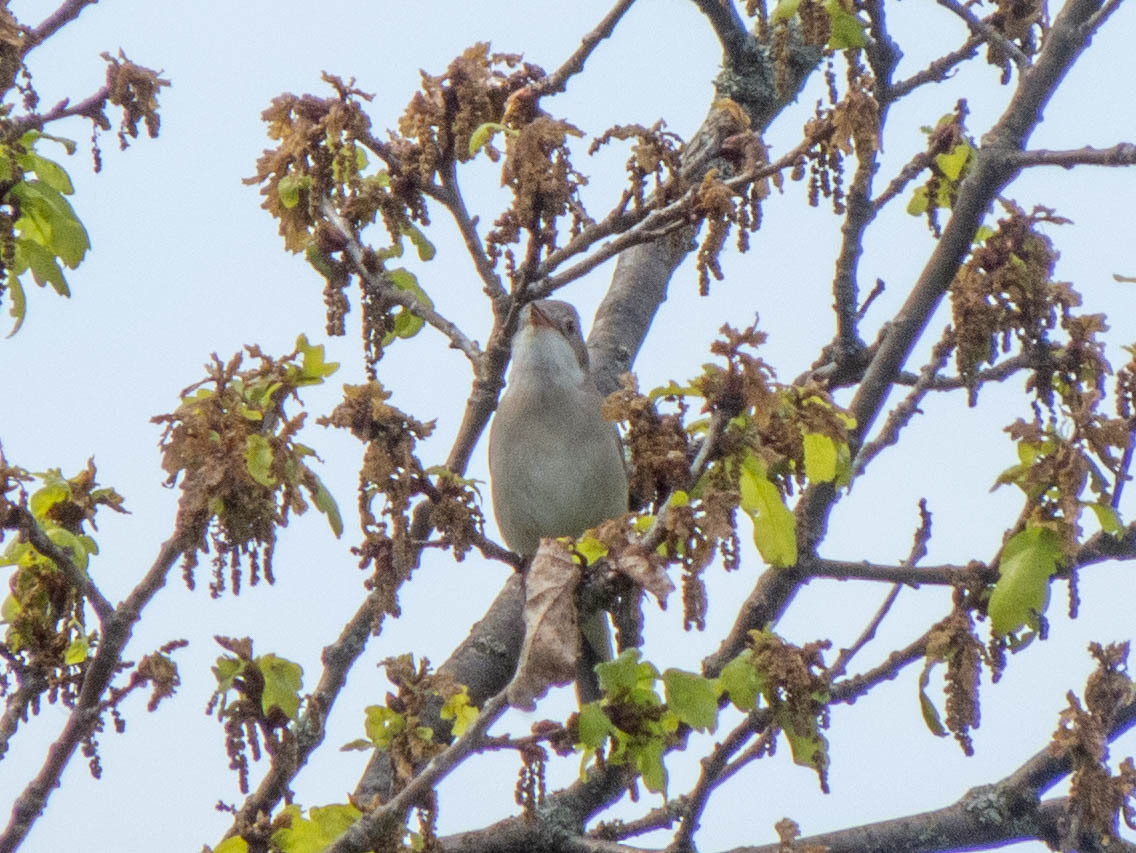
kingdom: Animalia
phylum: Chordata
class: Aves
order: Passeriformes
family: Sylviidae
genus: Sylvia
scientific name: Sylvia communis
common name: Common whitethroat
